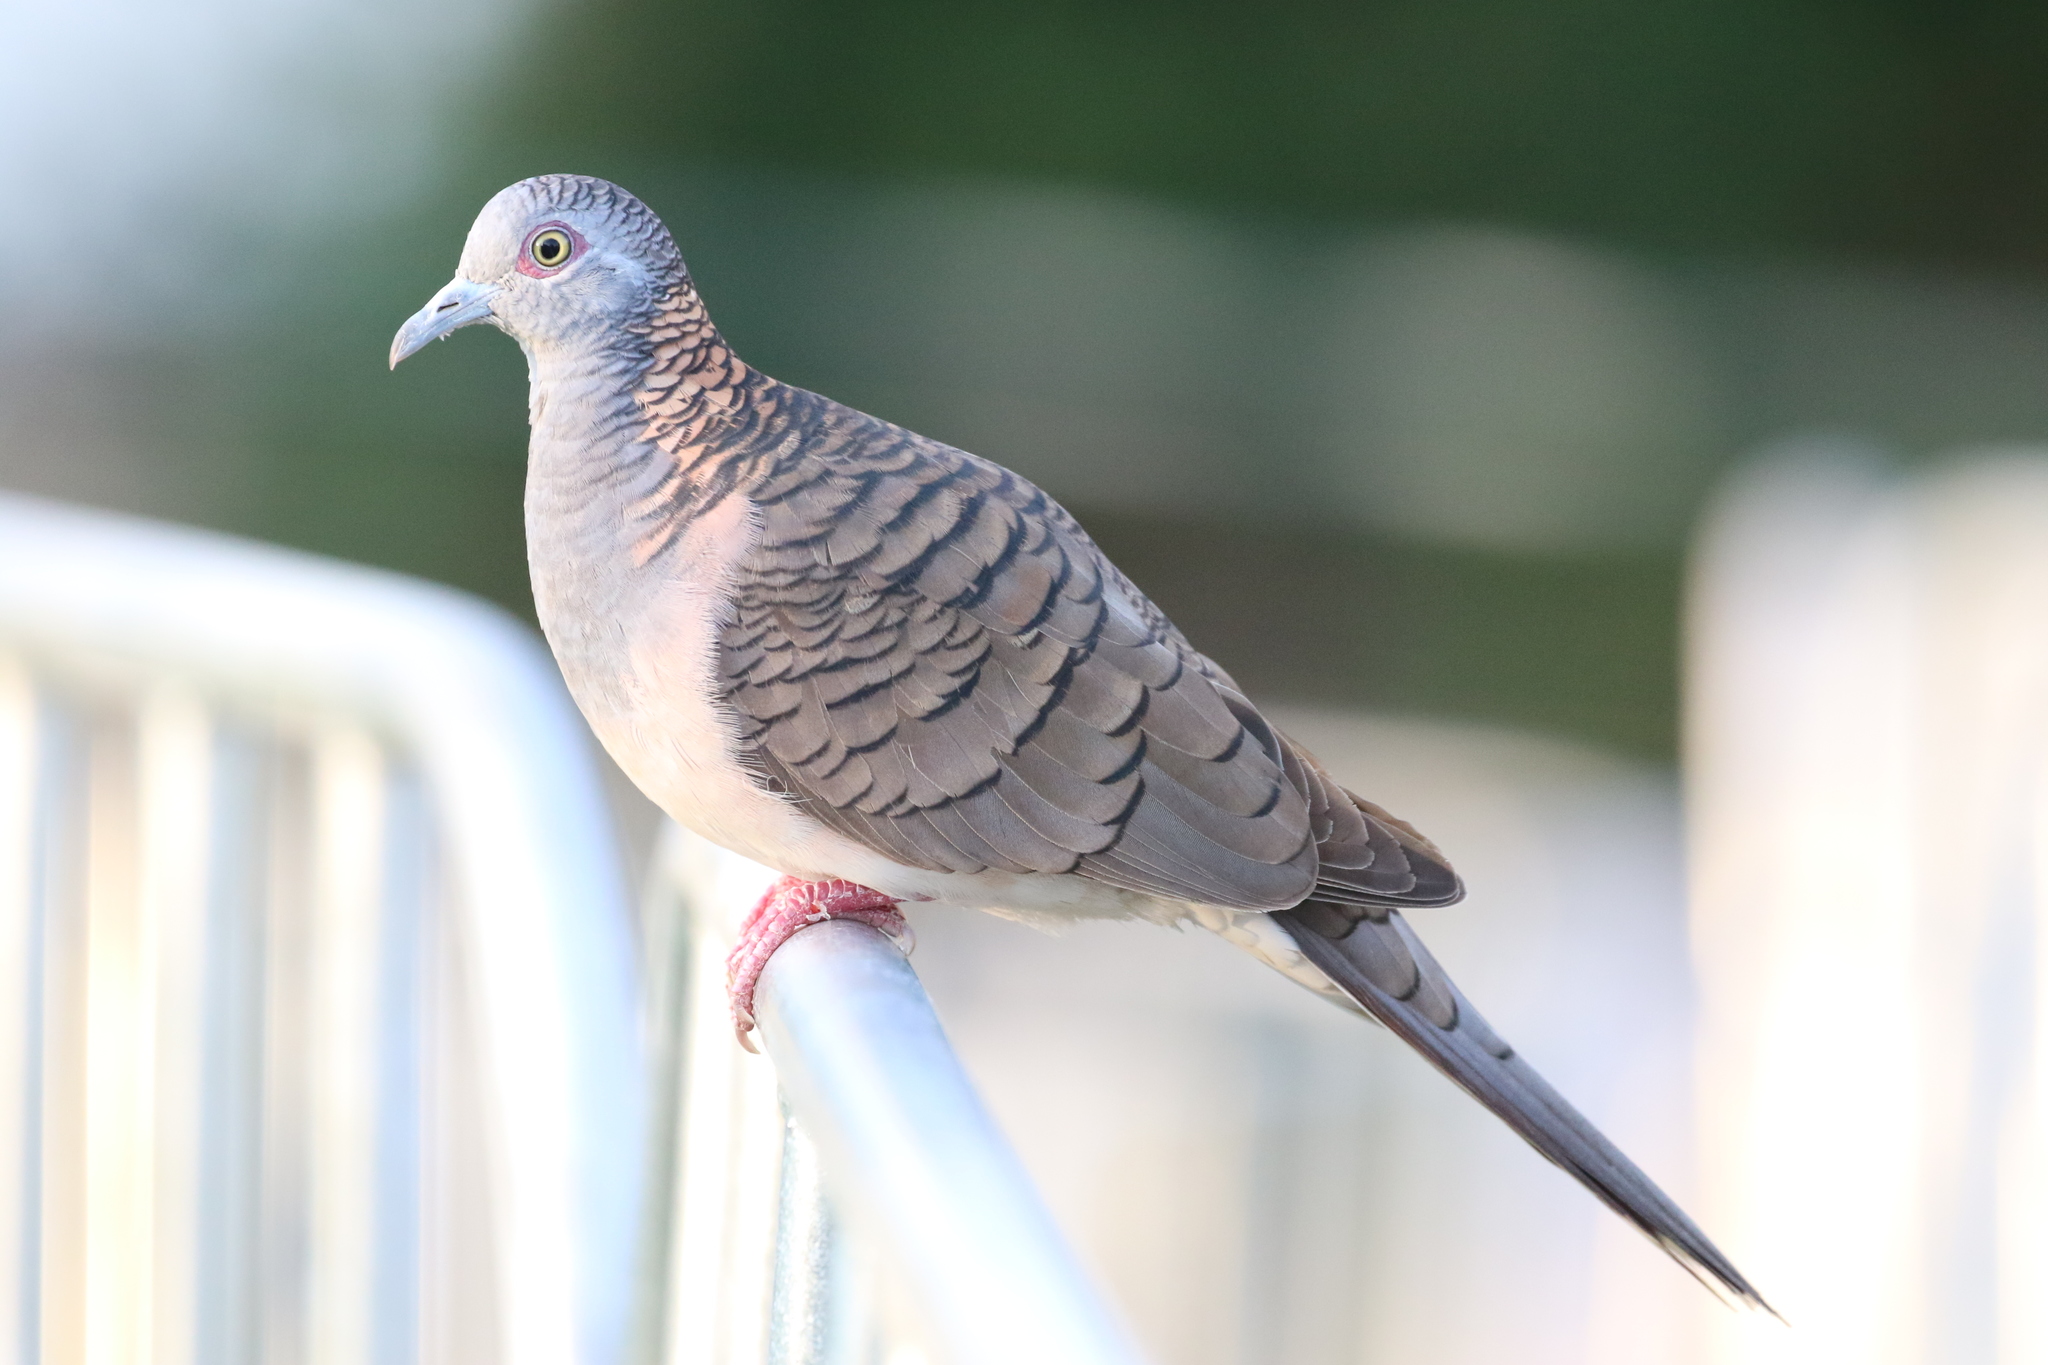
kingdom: Animalia
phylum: Chordata
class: Aves
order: Columbiformes
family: Columbidae
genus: Geopelia
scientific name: Geopelia humeralis
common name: Bar-shouldered dove
